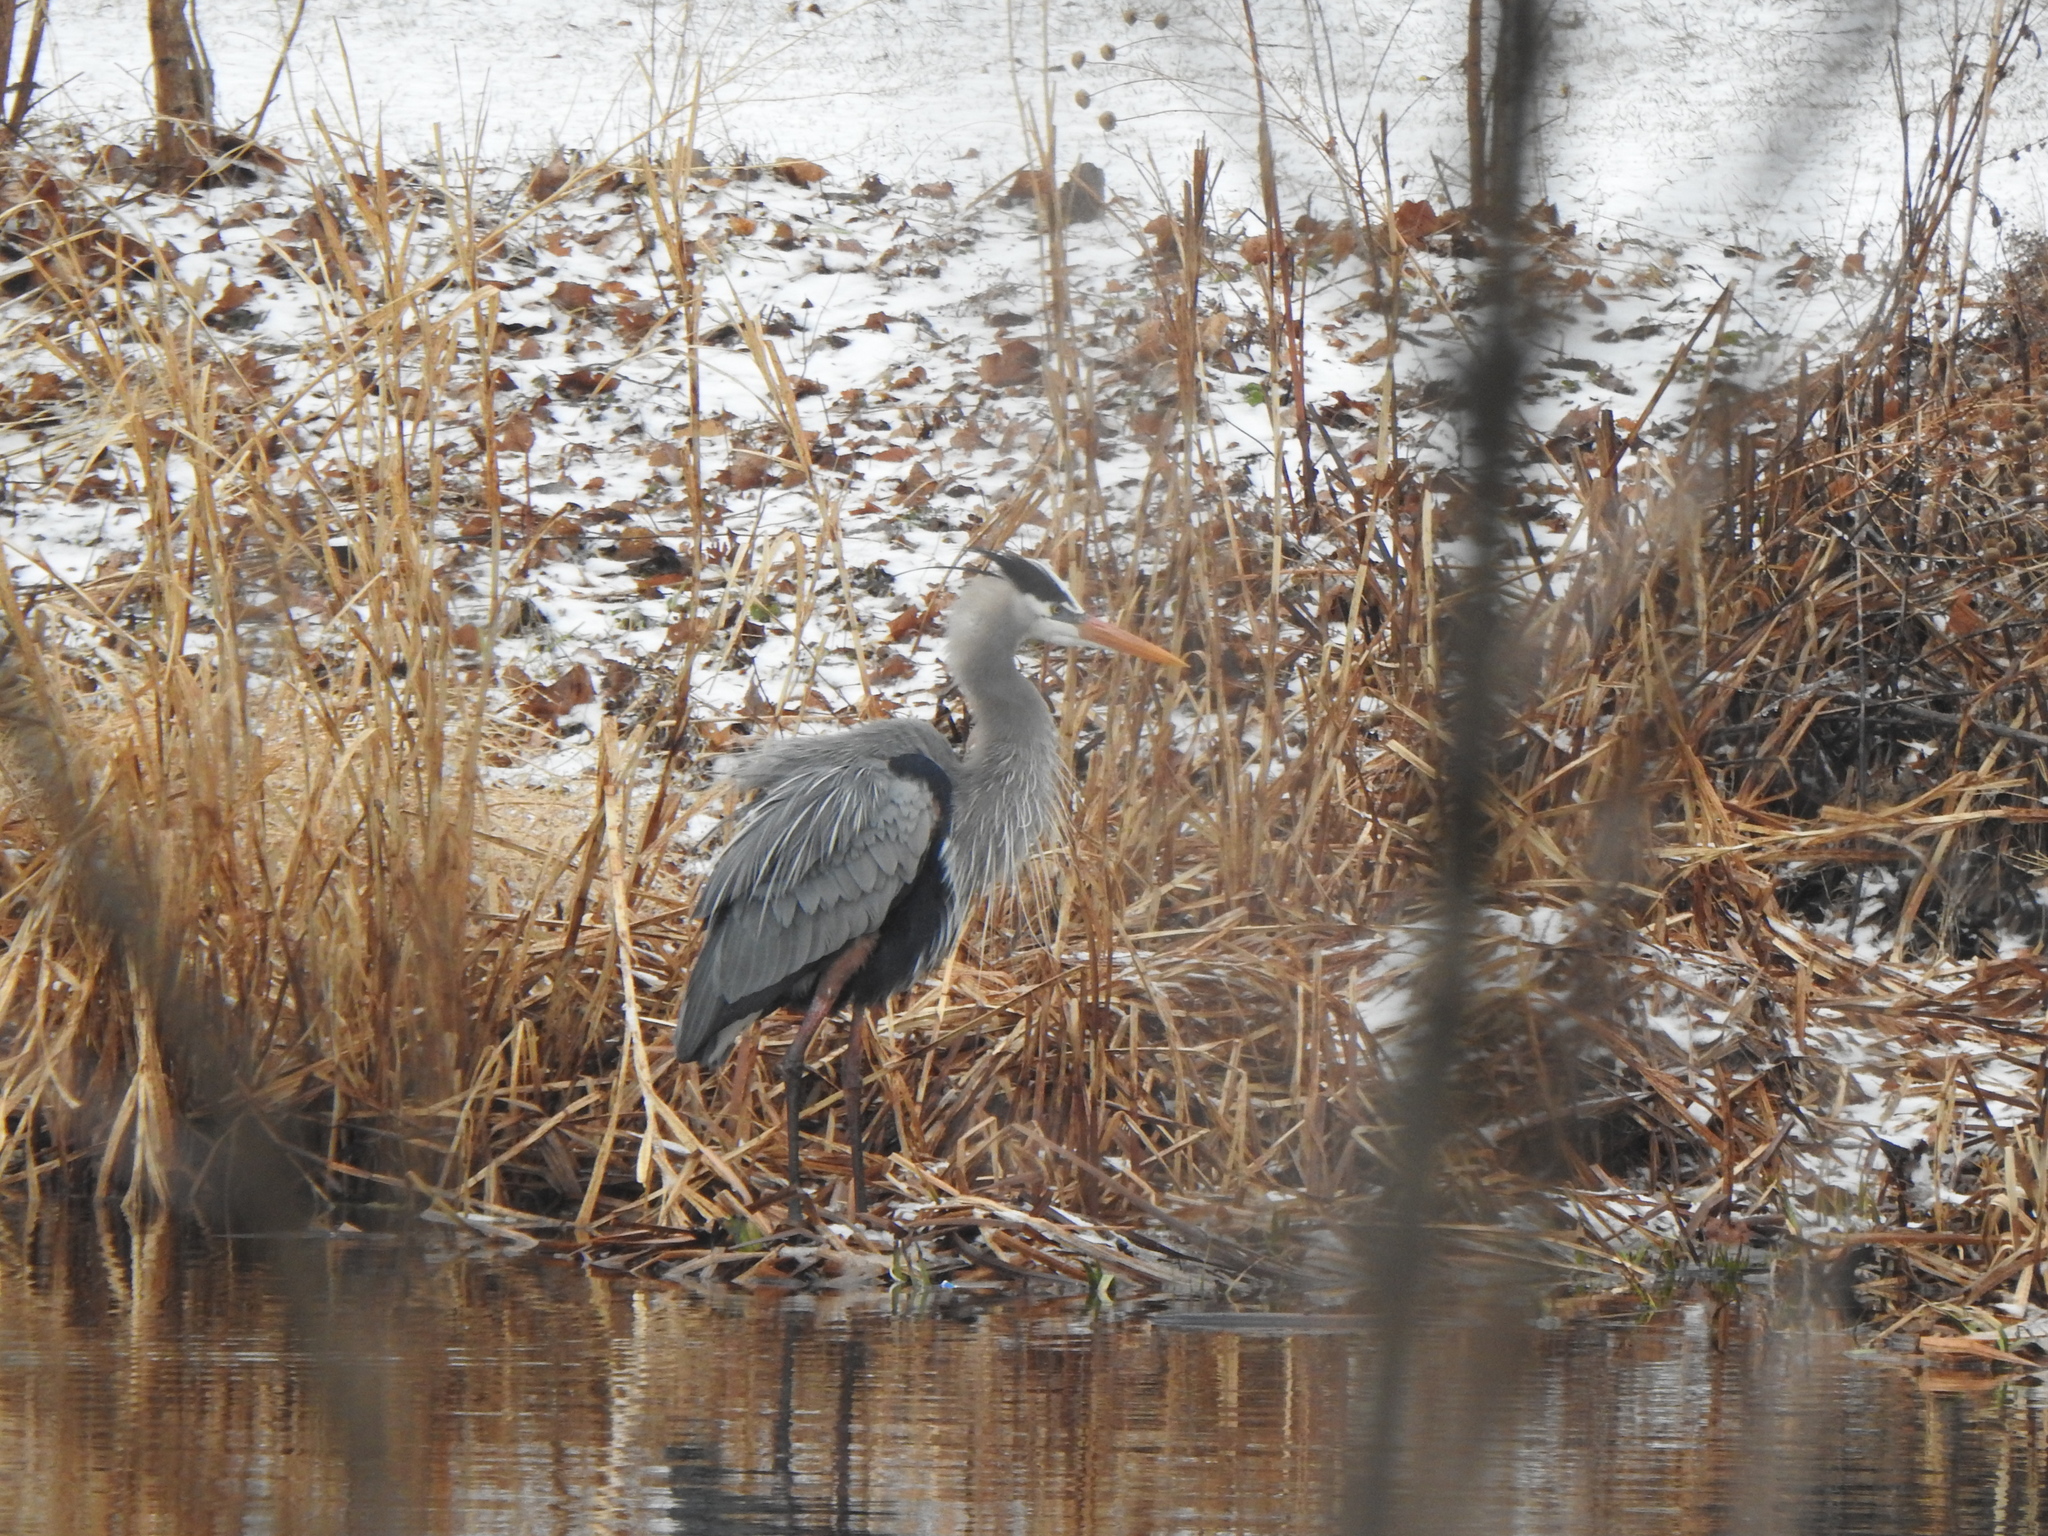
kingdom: Animalia
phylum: Chordata
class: Aves
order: Pelecaniformes
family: Ardeidae
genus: Ardea
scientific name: Ardea herodias
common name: Great blue heron
